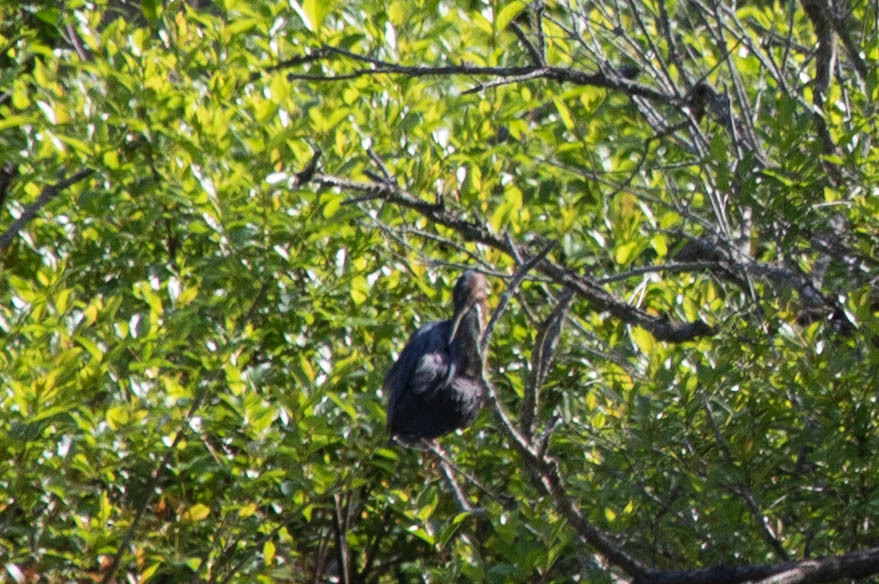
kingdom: Animalia
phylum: Chordata
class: Aves
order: Pelecaniformes
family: Ardeidae
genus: Butorides
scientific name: Butorides virescens
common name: Green heron
